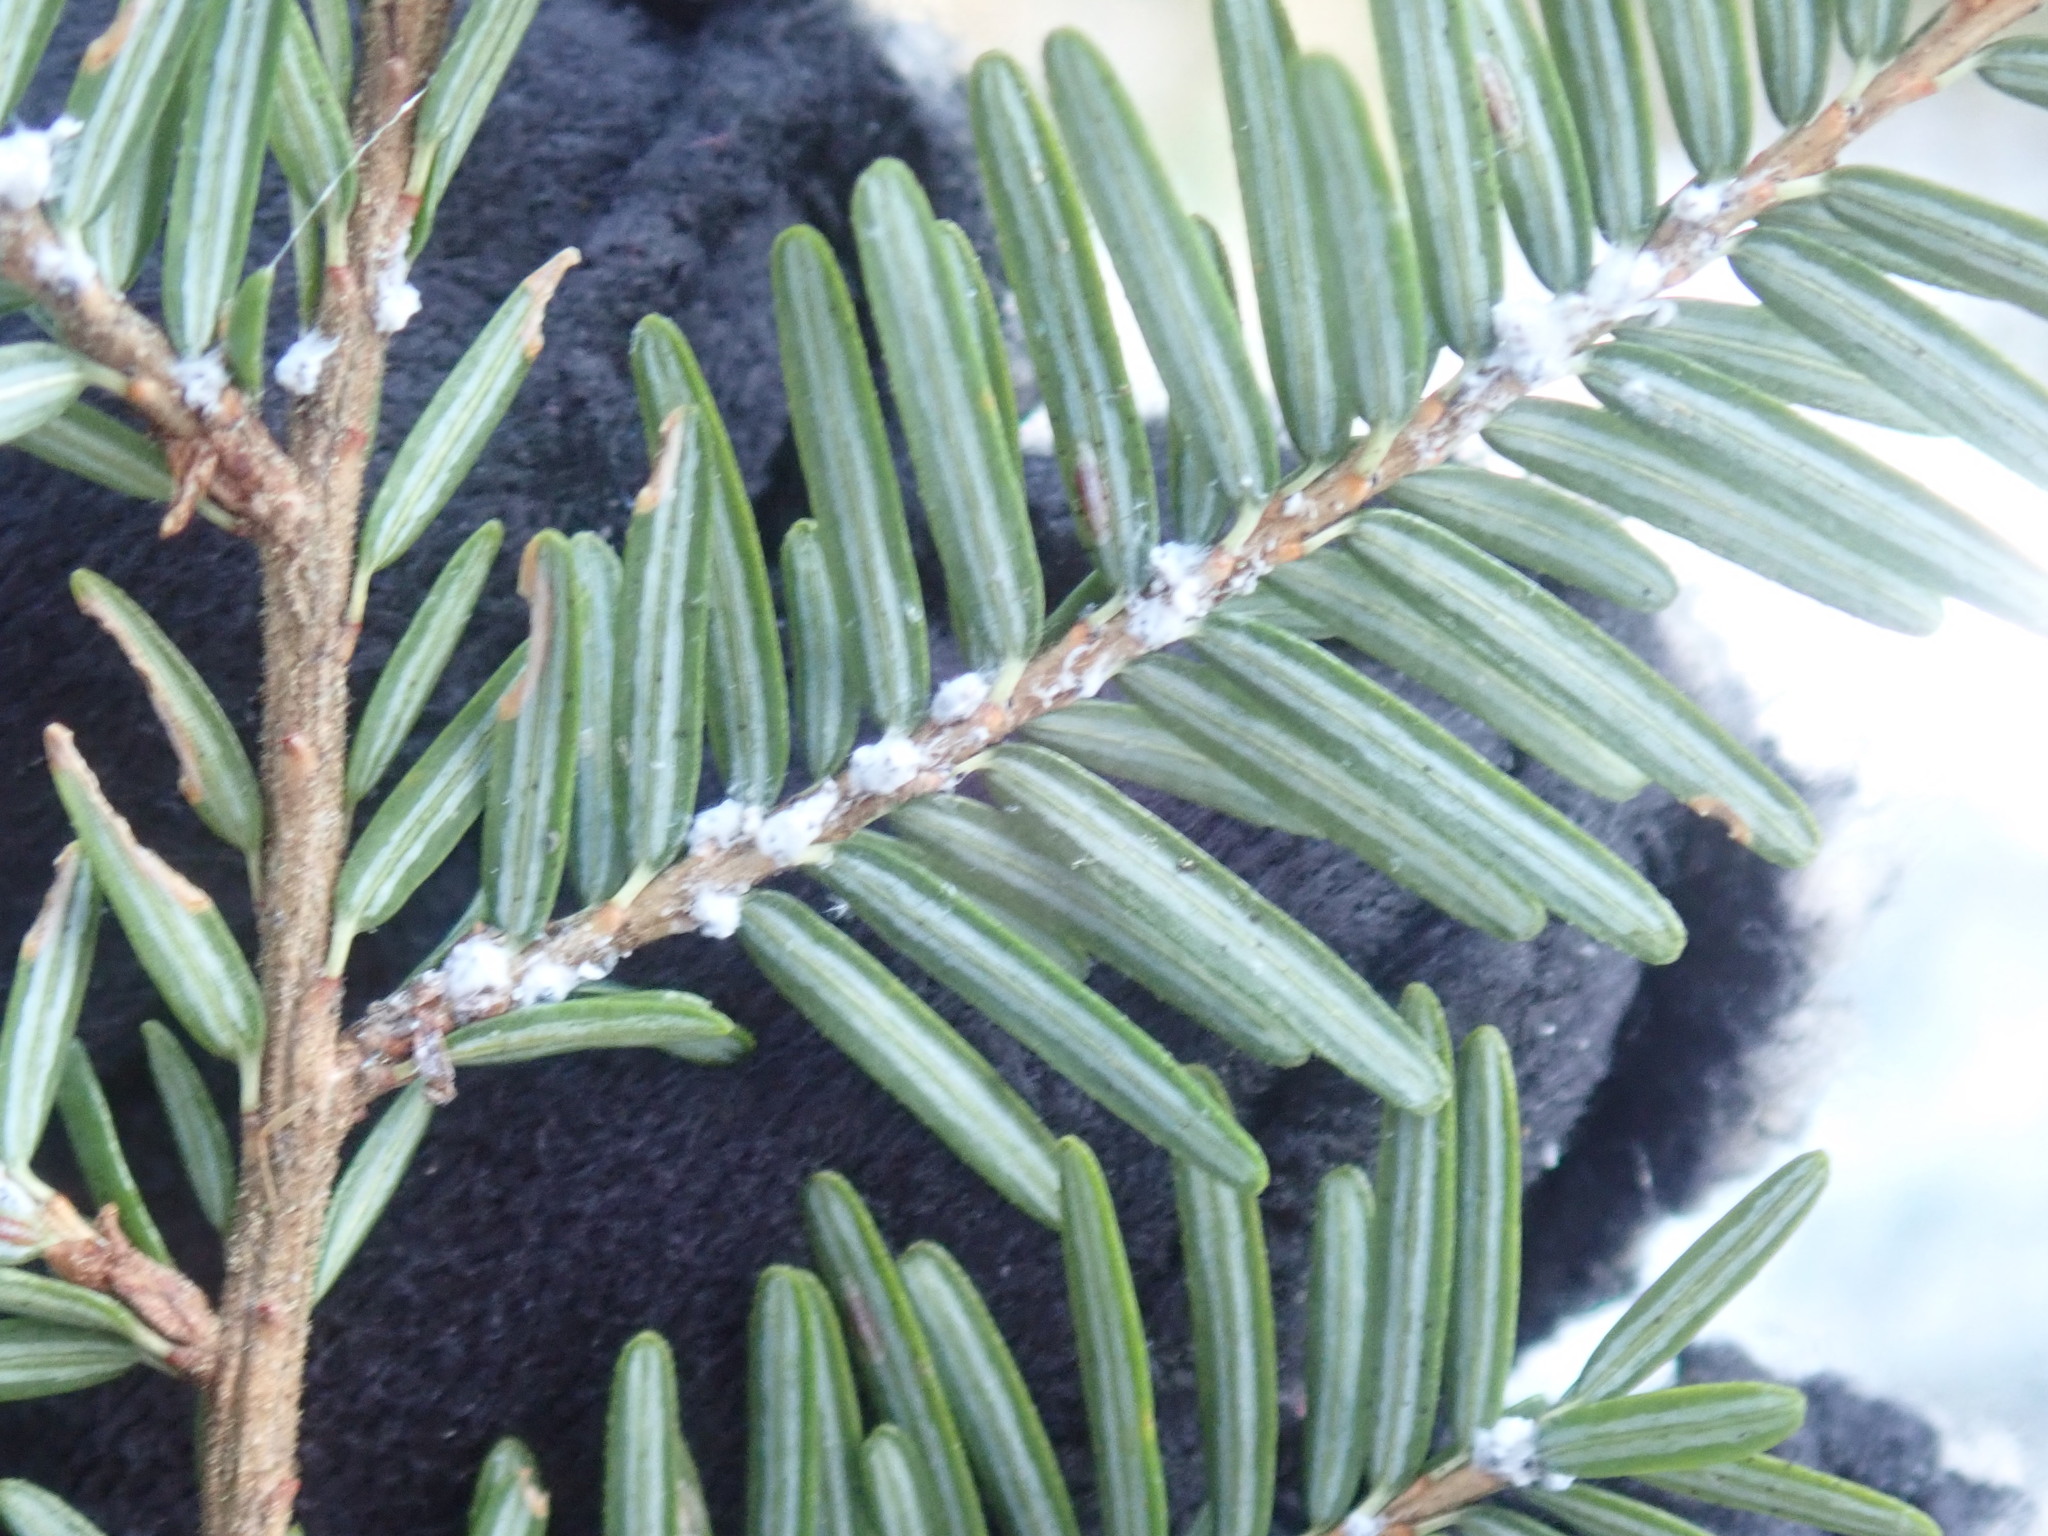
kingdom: Animalia
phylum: Arthropoda
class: Insecta
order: Hemiptera
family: Adelgidae
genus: Adelges
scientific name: Adelges tsugae
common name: Hemlock woolly adelgid
